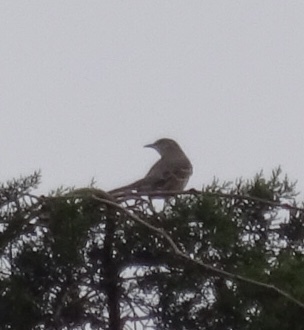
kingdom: Animalia
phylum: Chordata
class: Aves
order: Passeriformes
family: Mimidae
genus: Mimus
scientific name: Mimus polyglottos
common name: Northern mockingbird
